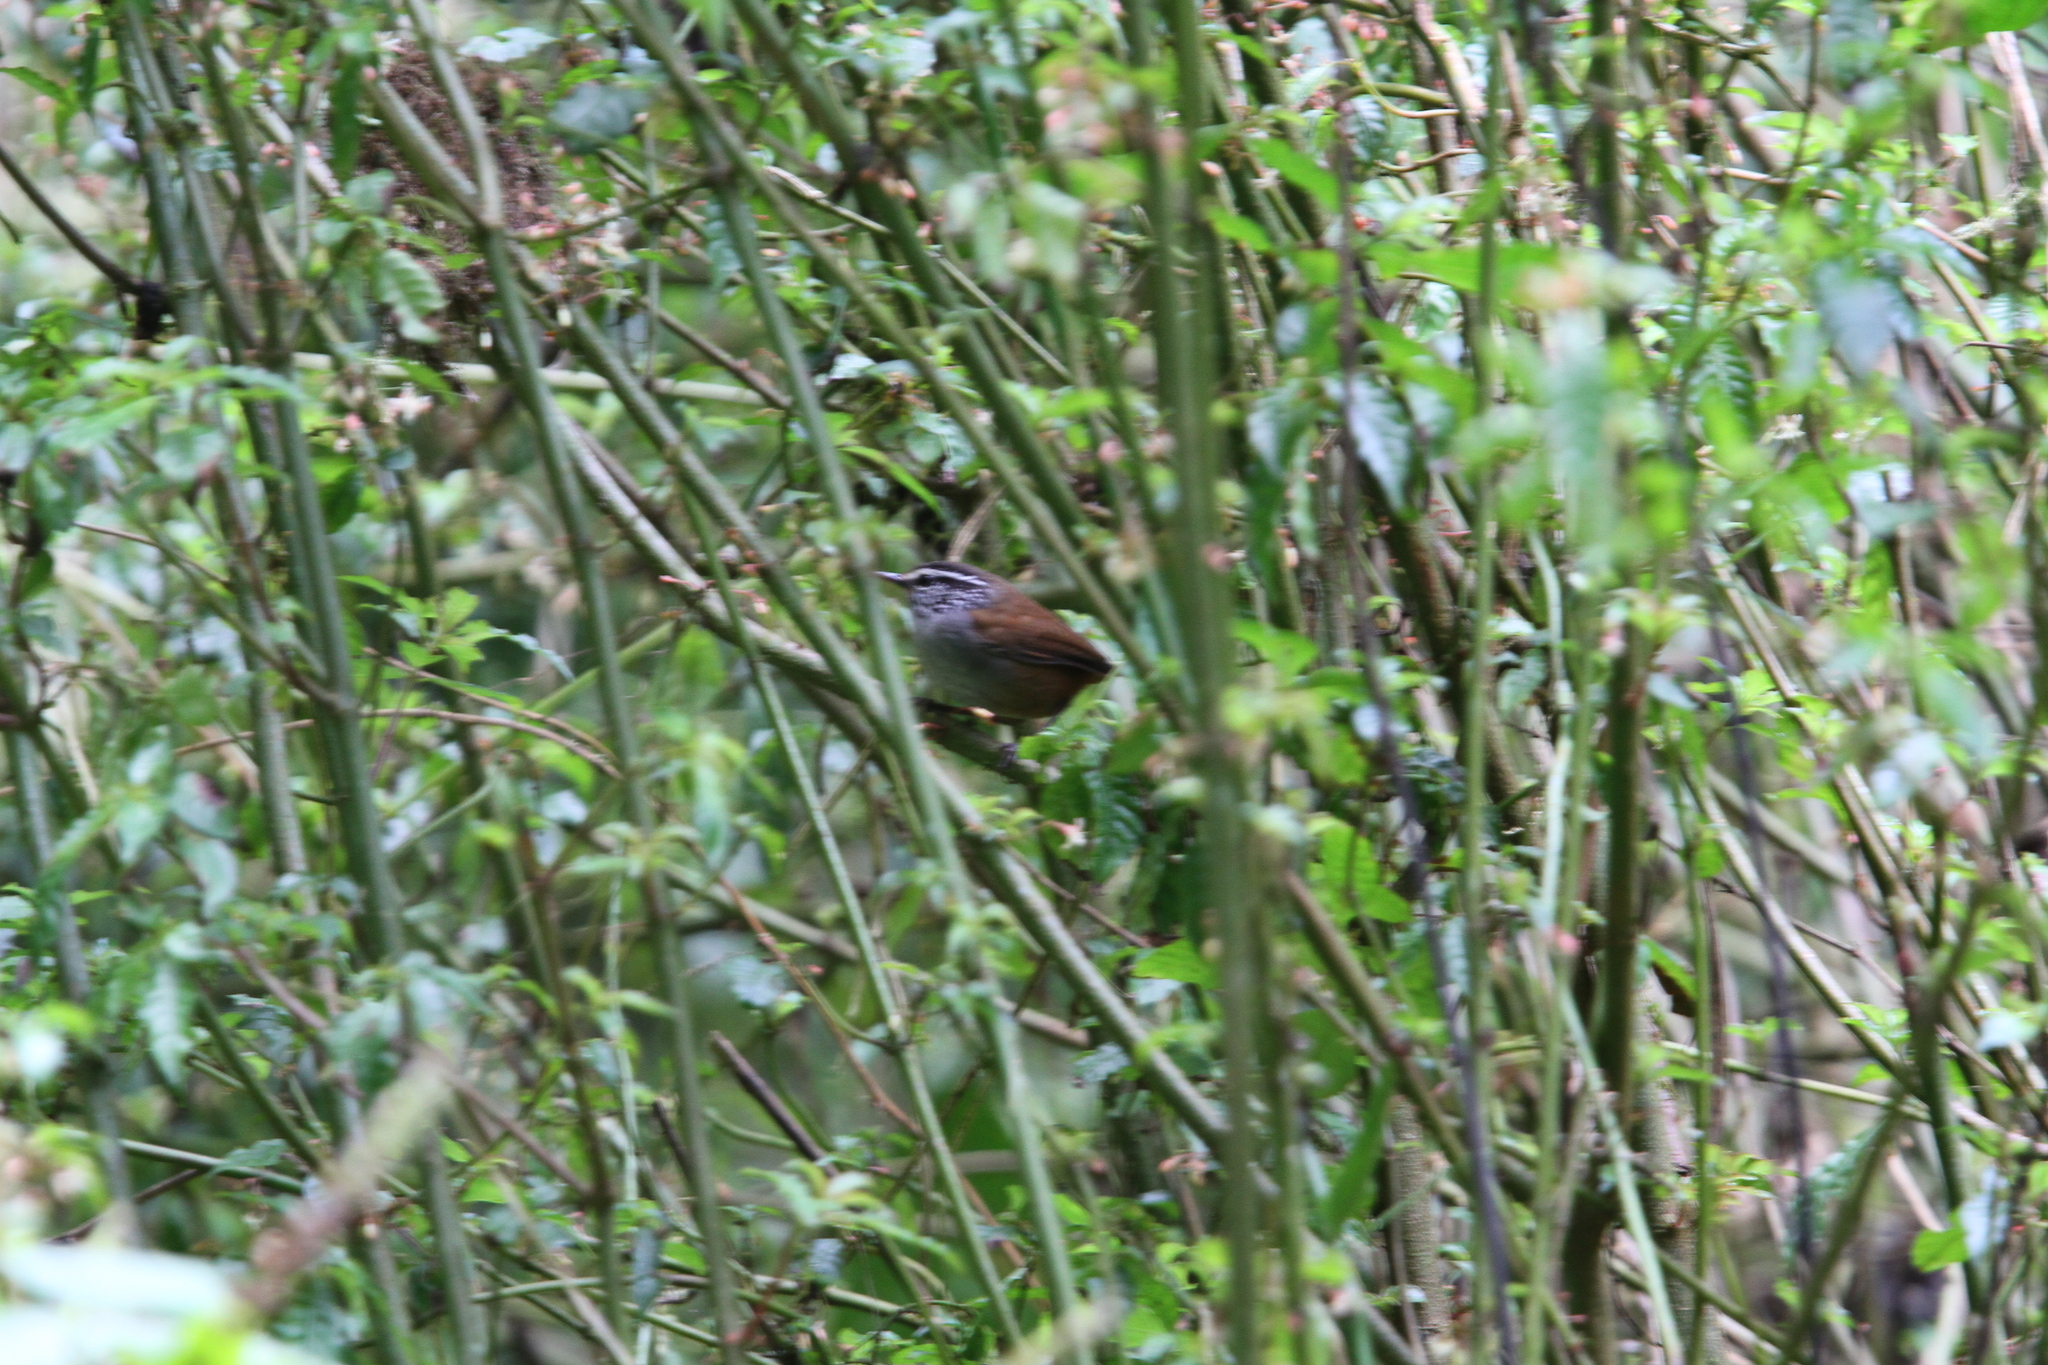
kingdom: Animalia
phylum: Chordata
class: Aves
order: Passeriformes
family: Troglodytidae
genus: Henicorhina
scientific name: Henicorhina leucophrys
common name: Gray-breasted wood-wren
